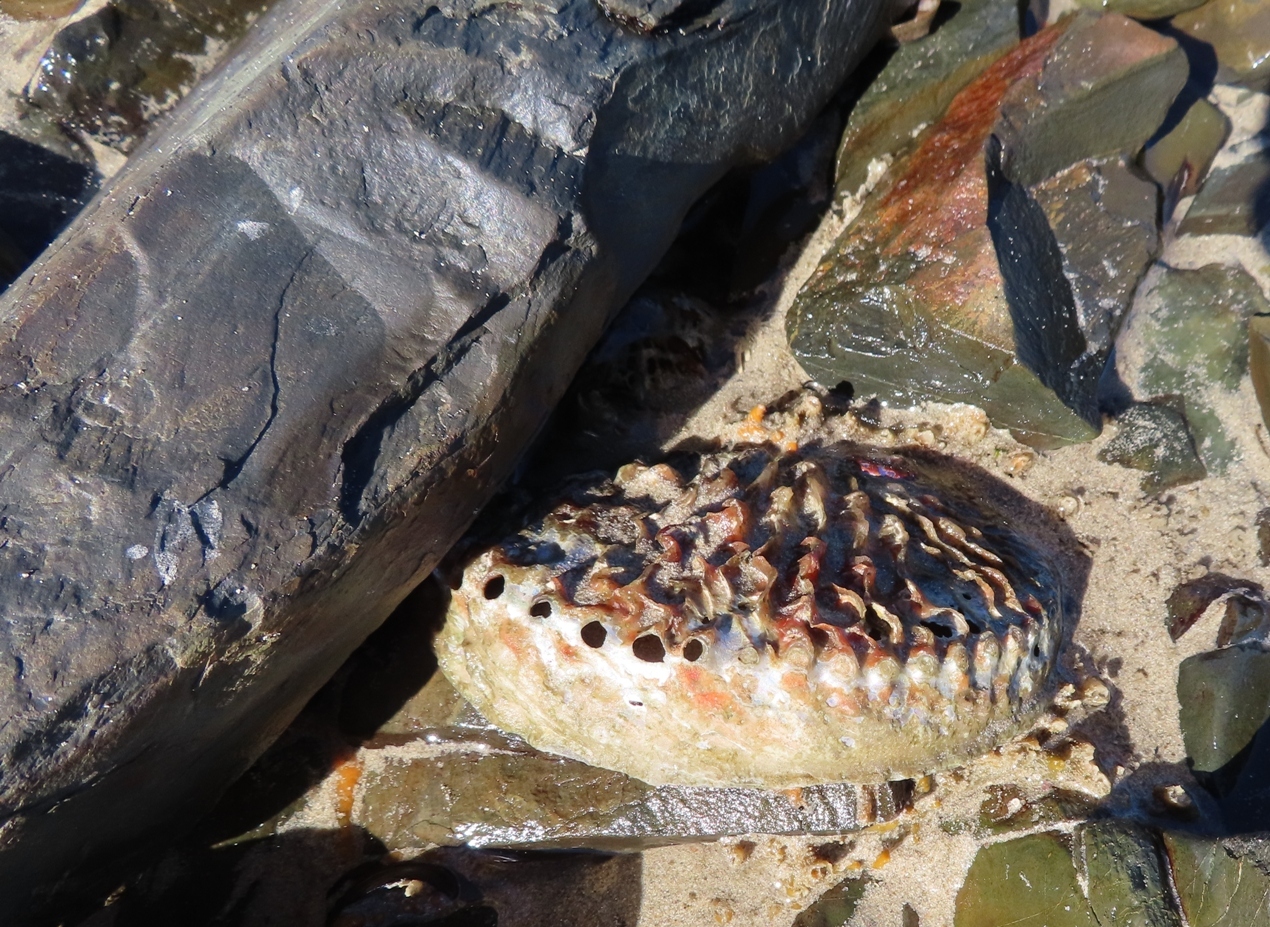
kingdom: Animalia
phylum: Mollusca
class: Gastropoda
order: Lepetellida
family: Haliotidae
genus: Haliotis
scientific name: Haliotis midae
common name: Perlemoen
